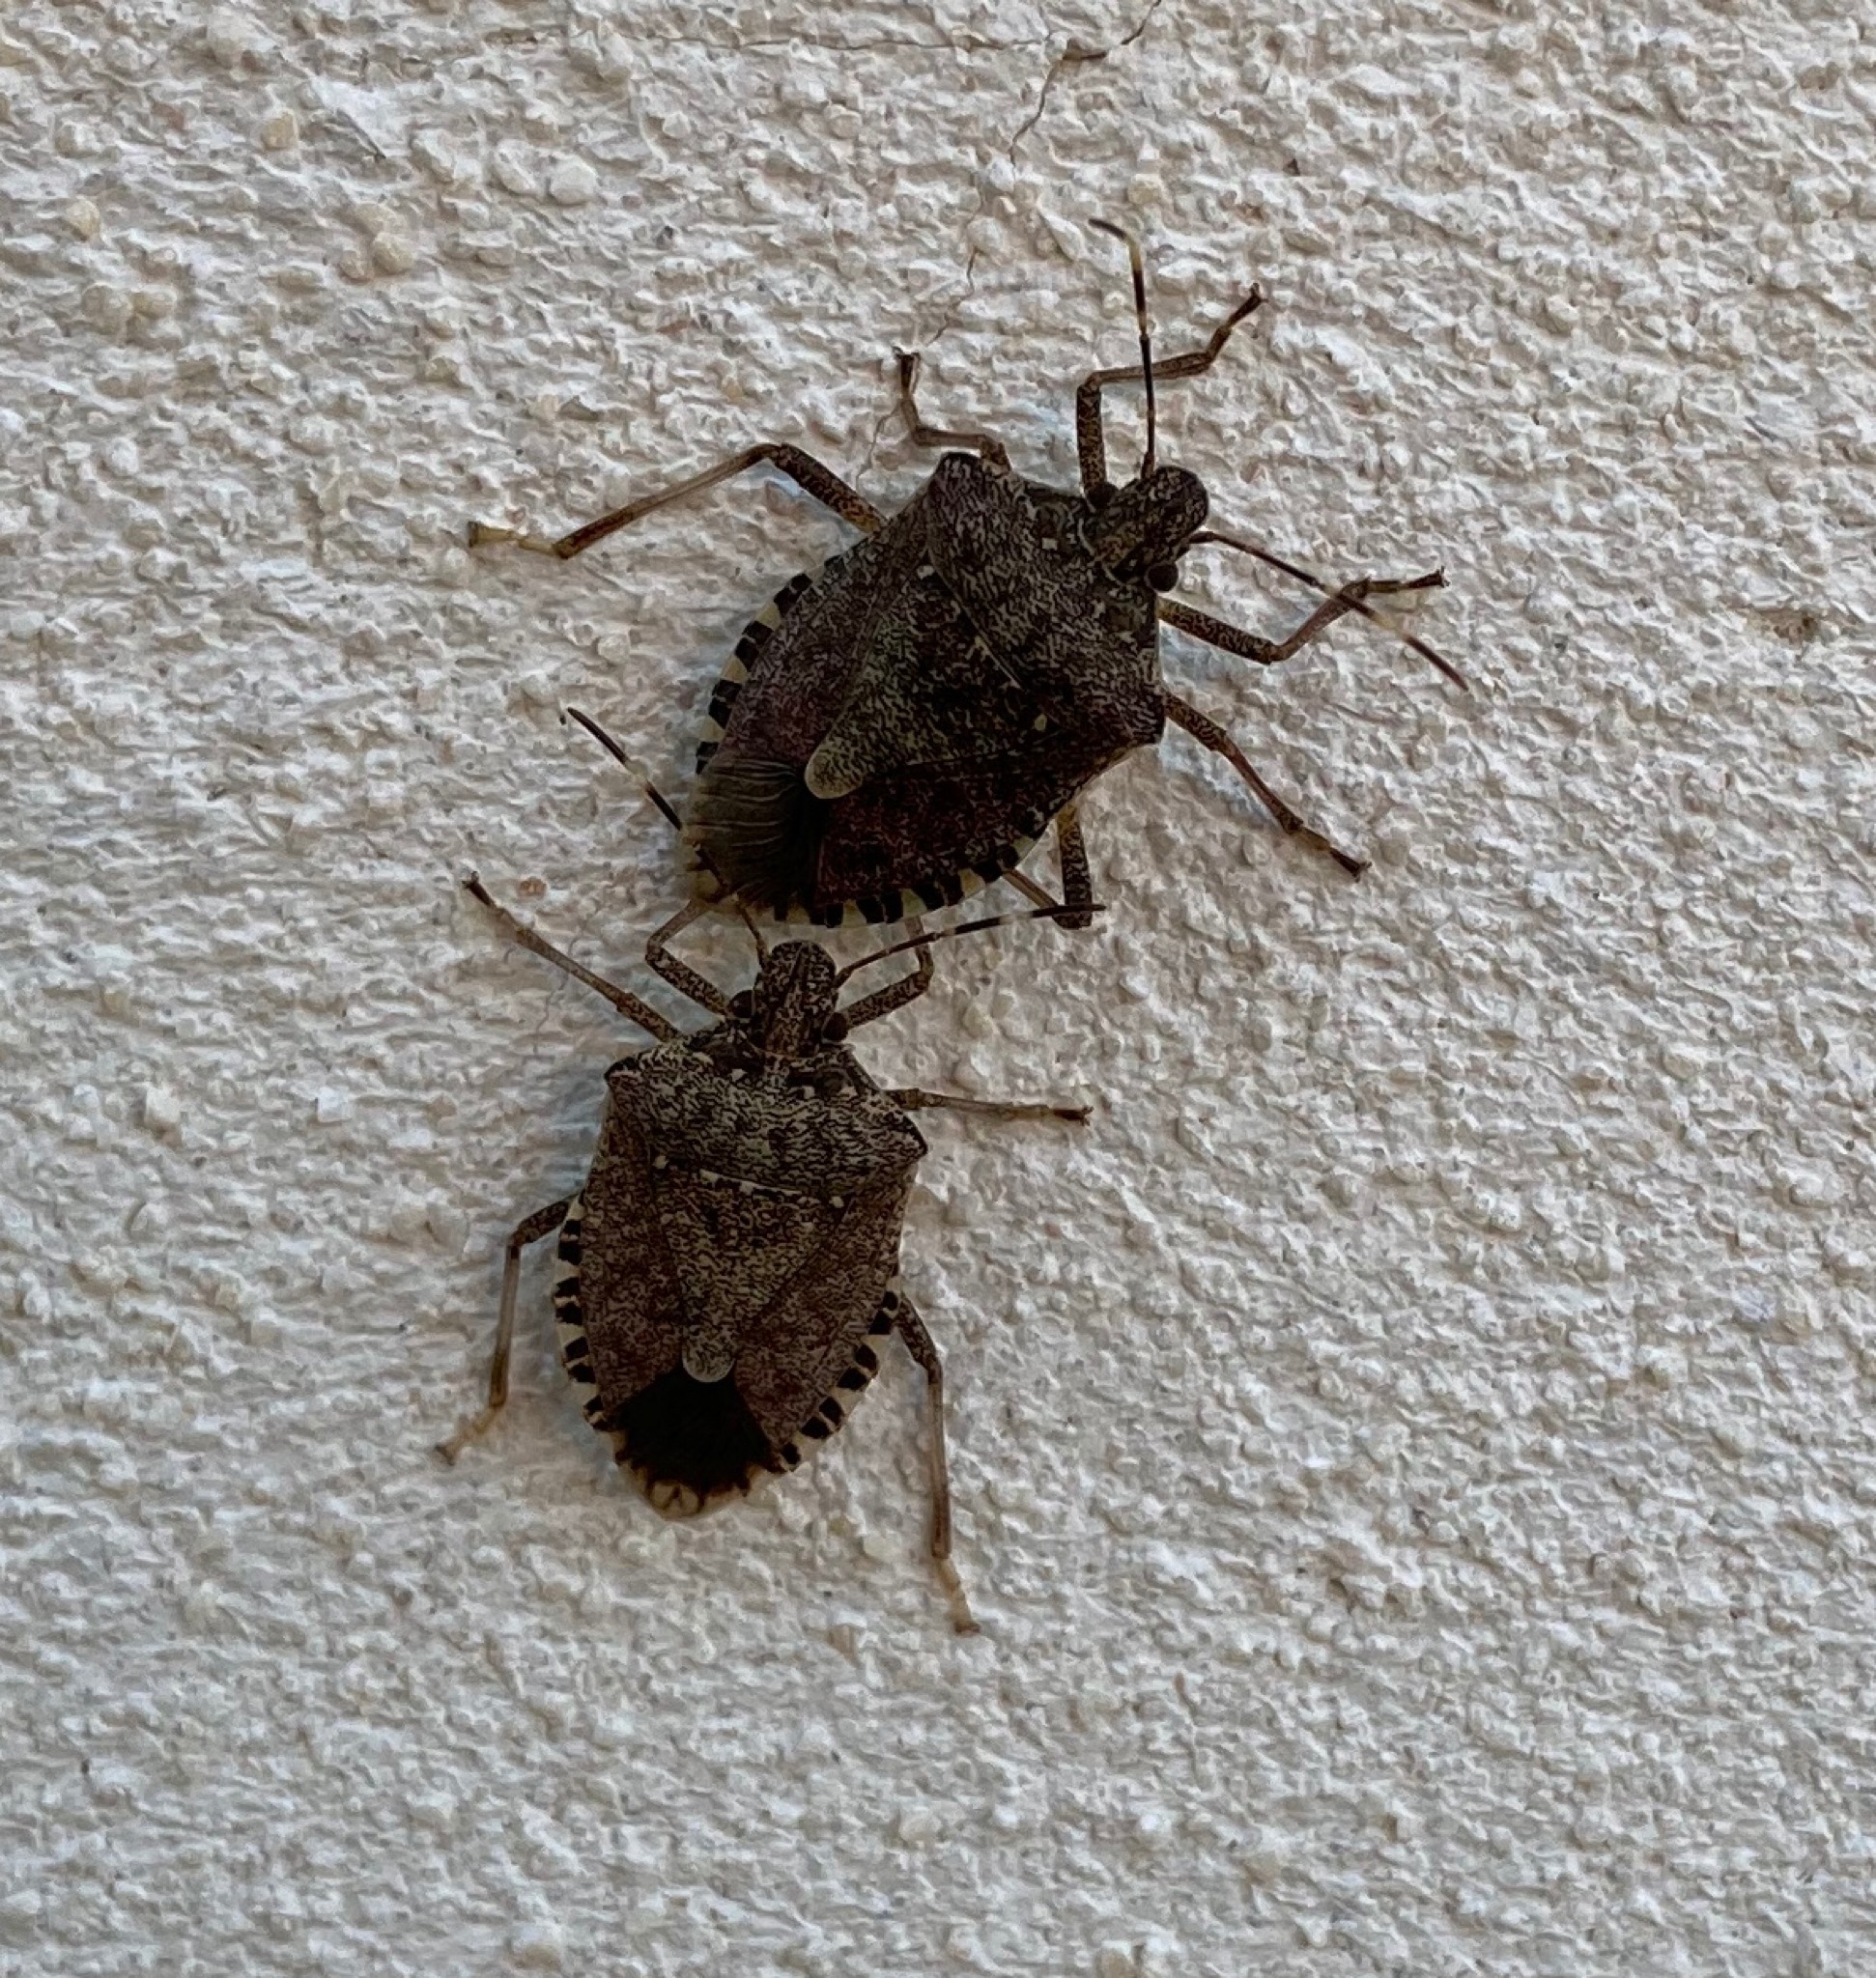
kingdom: Animalia
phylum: Arthropoda
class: Insecta
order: Hemiptera
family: Pentatomidae
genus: Halyomorpha
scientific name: Halyomorpha halys
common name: Brown marmorated stink bug
